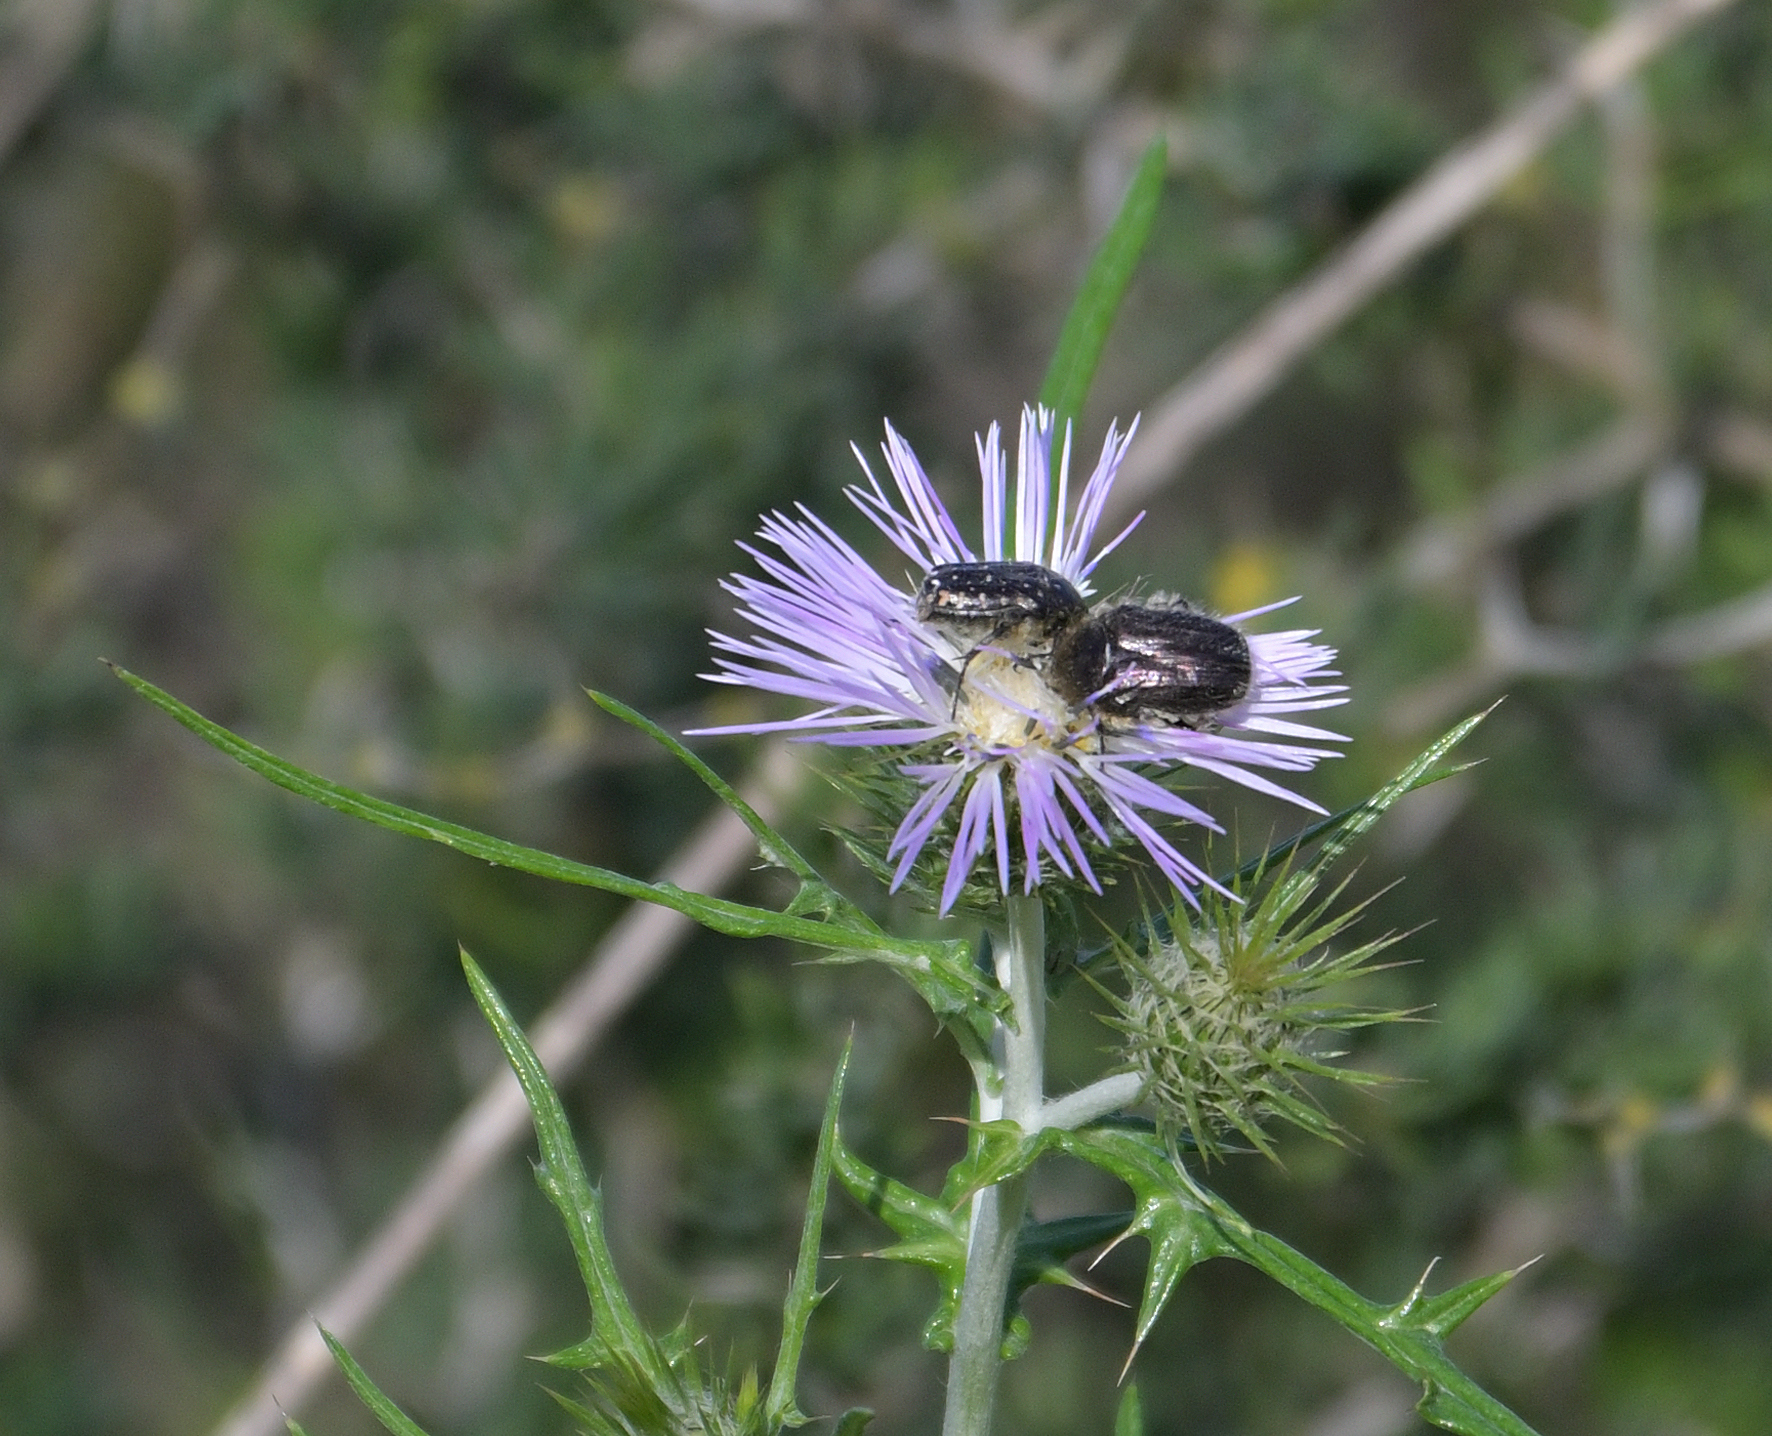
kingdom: Animalia
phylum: Arthropoda
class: Insecta
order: Coleoptera
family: Scarabaeidae
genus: Oxythyrea
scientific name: Oxythyrea funesta
